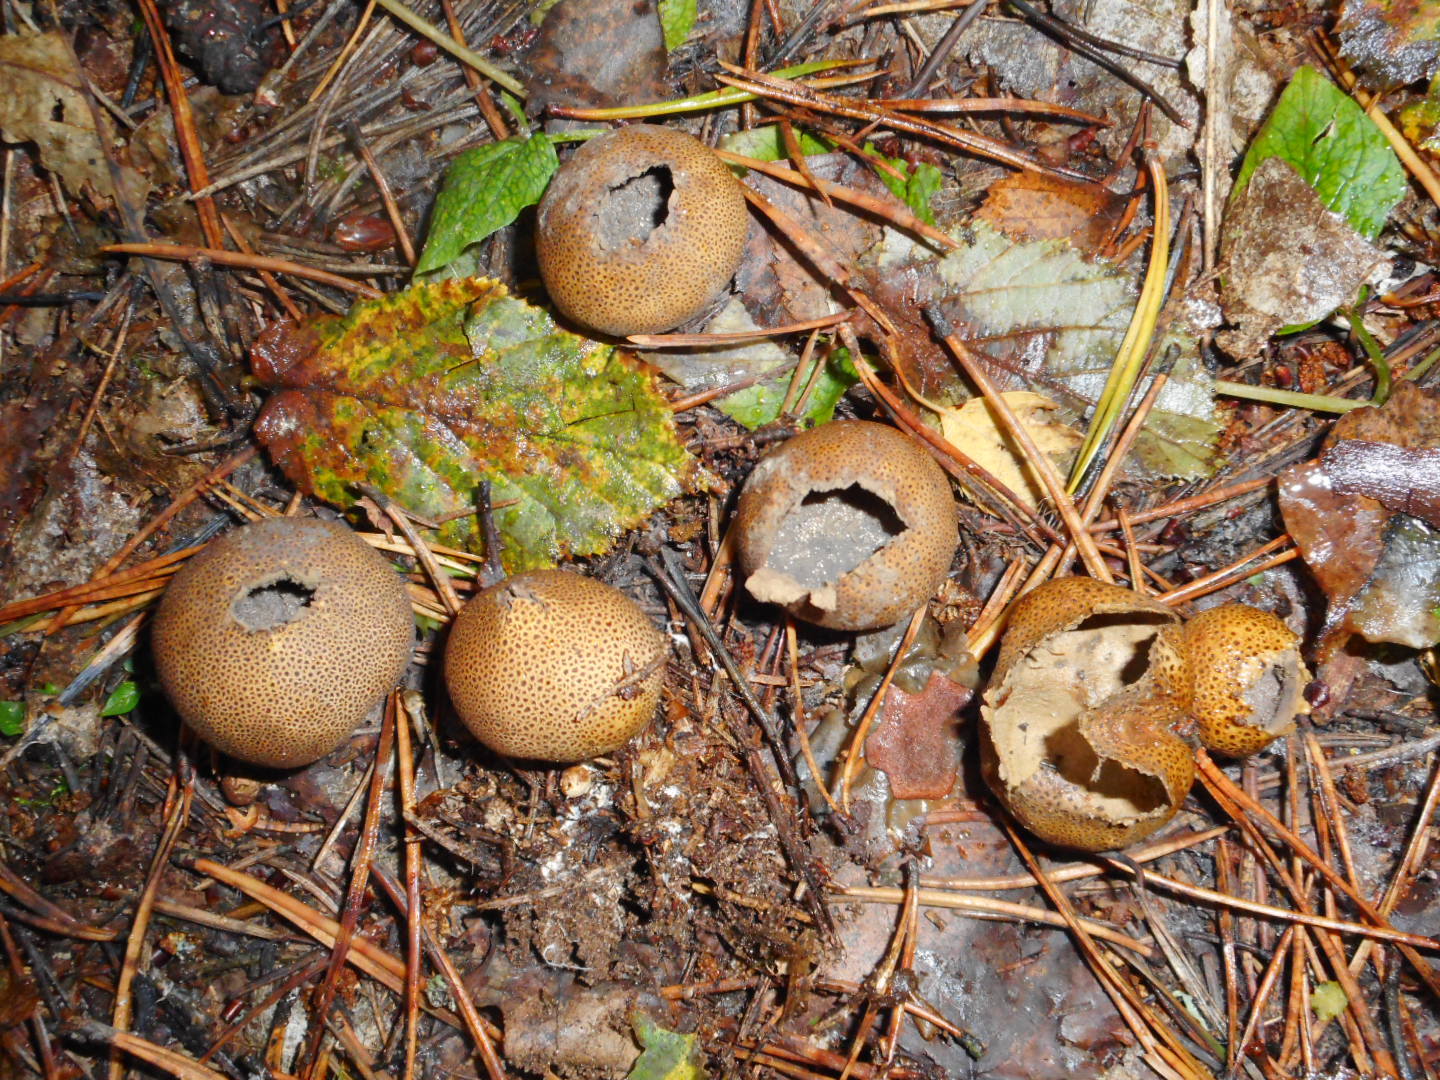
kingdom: Fungi
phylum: Basidiomycota
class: Agaricomycetes
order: Boletales
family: Sclerodermataceae
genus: Scleroderma
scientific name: Scleroderma citrinum
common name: Common earthball
